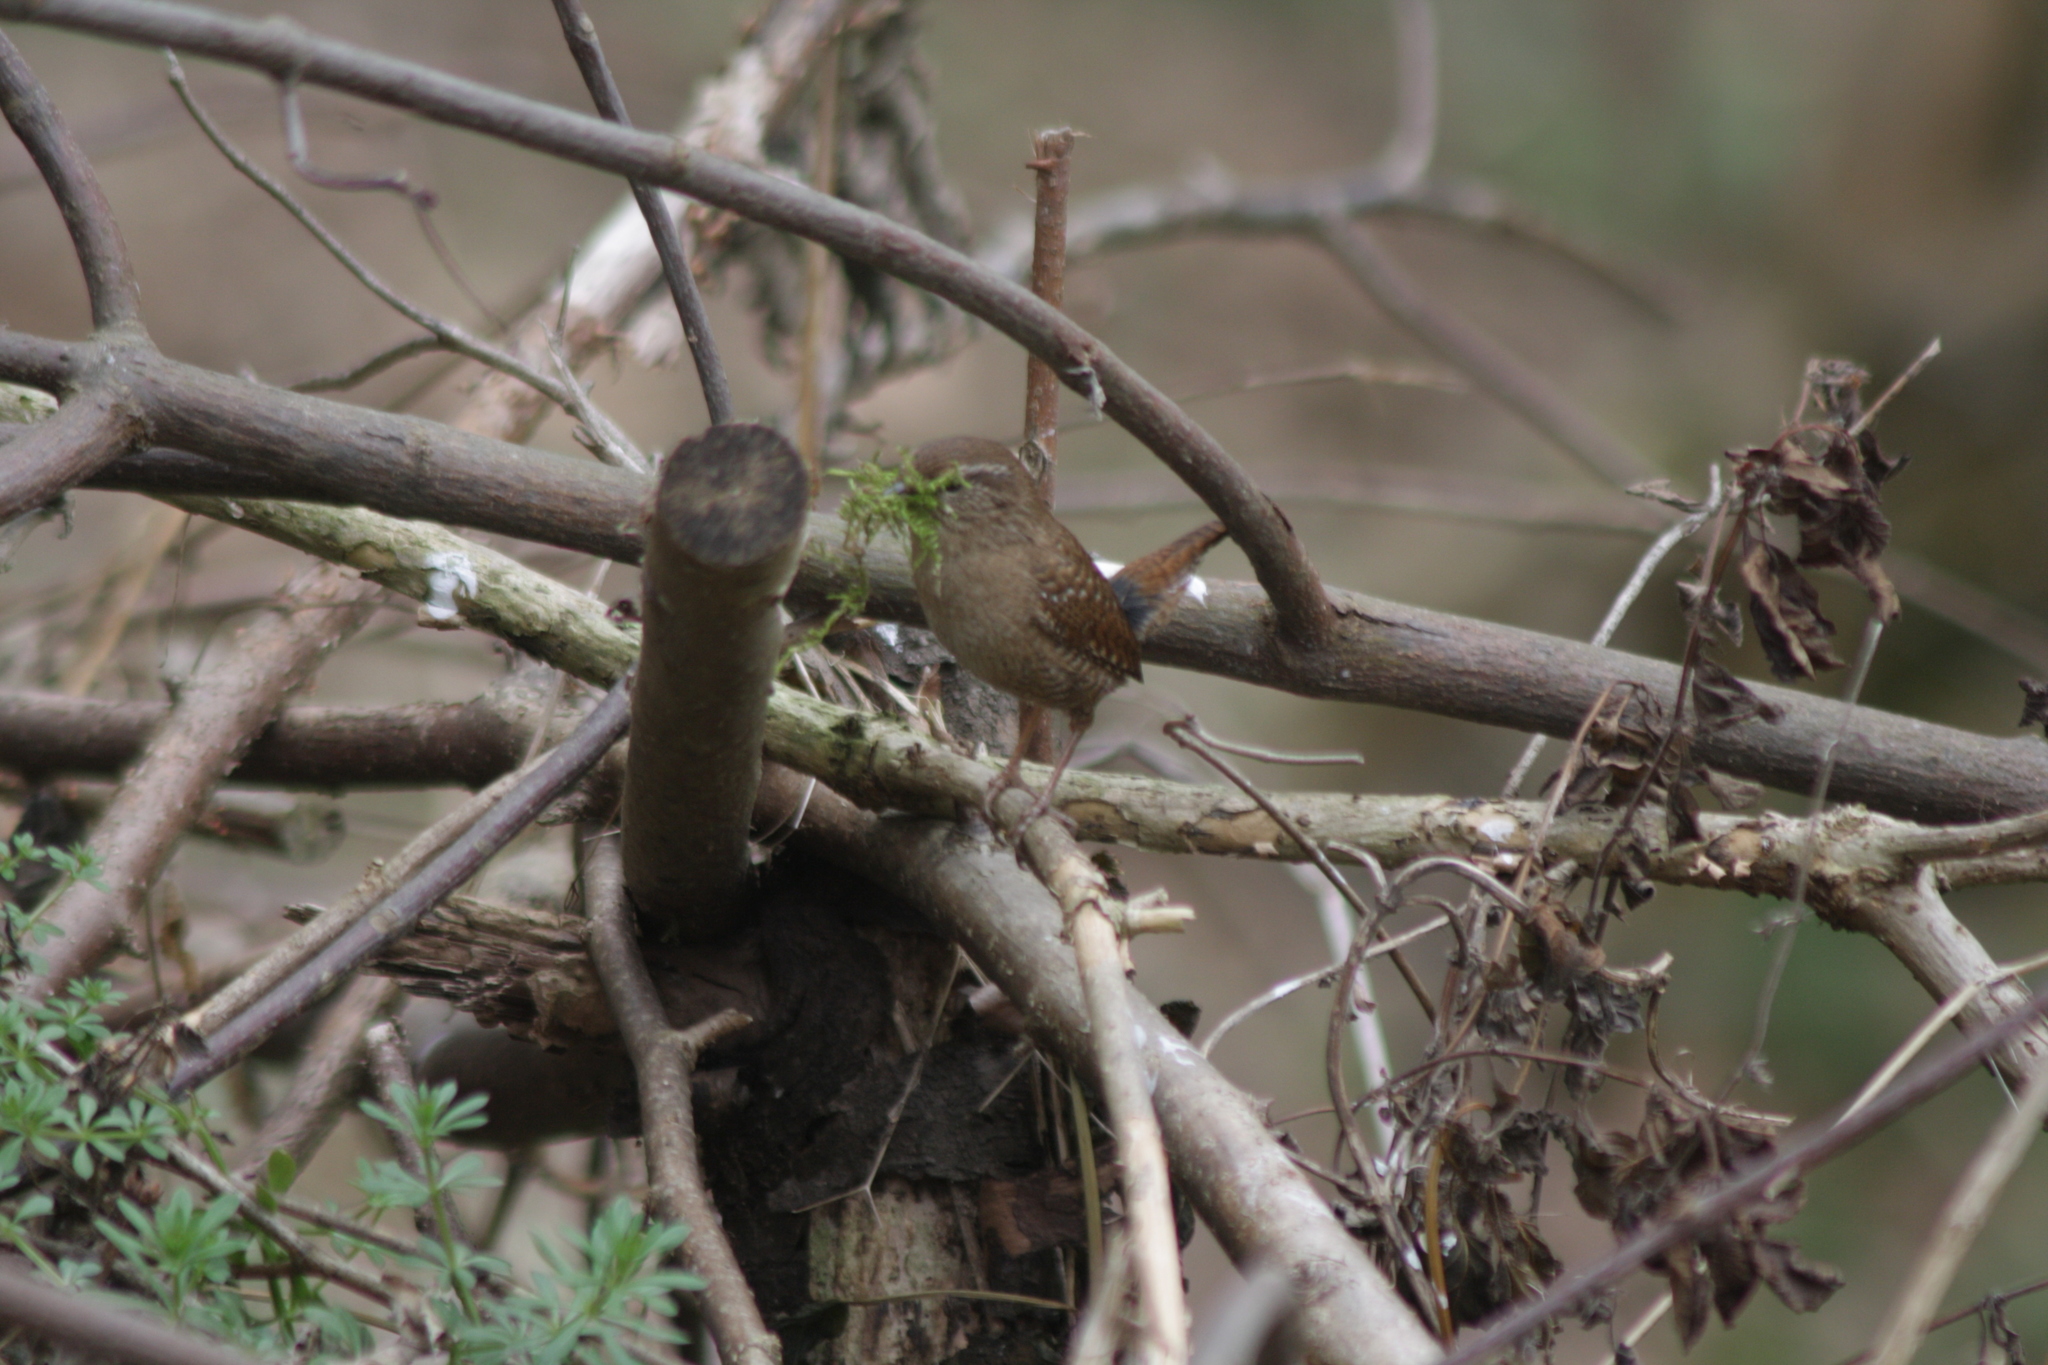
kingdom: Animalia
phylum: Chordata
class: Aves
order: Passeriformes
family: Troglodytidae
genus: Troglodytes
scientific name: Troglodytes troglodytes
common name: Eurasian wren
